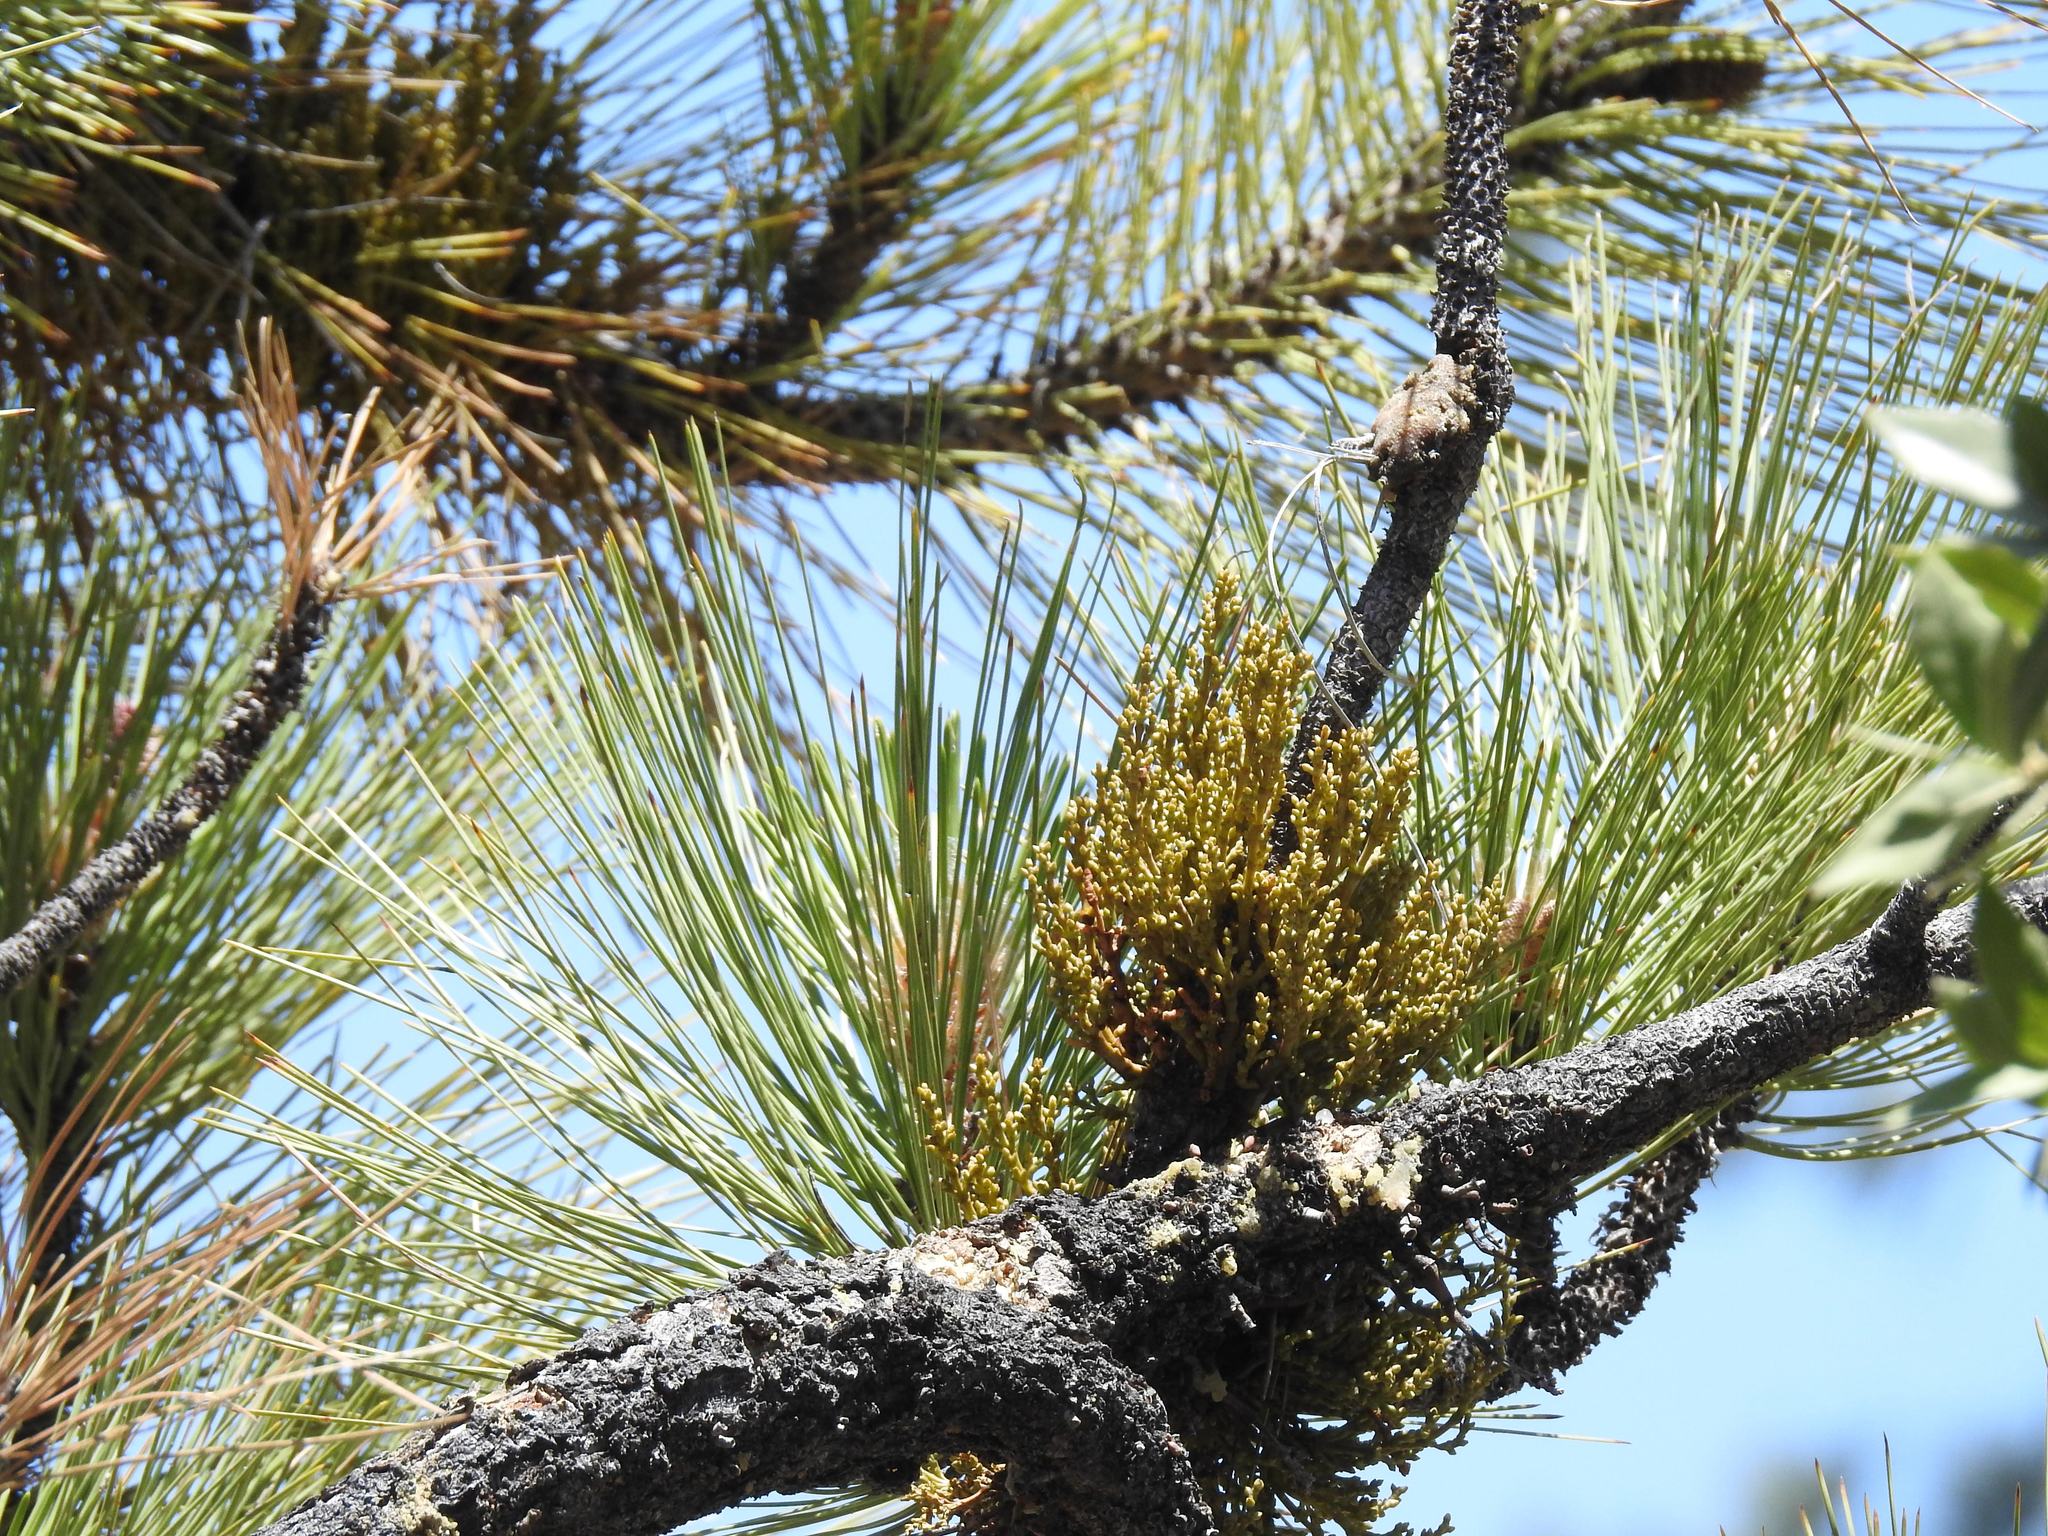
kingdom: Plantae
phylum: Tracheophyta
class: Magnoliopsida
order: Santalales
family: Viscaceae
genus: Arceuthobium
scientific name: Arceuthobium campylopodum
